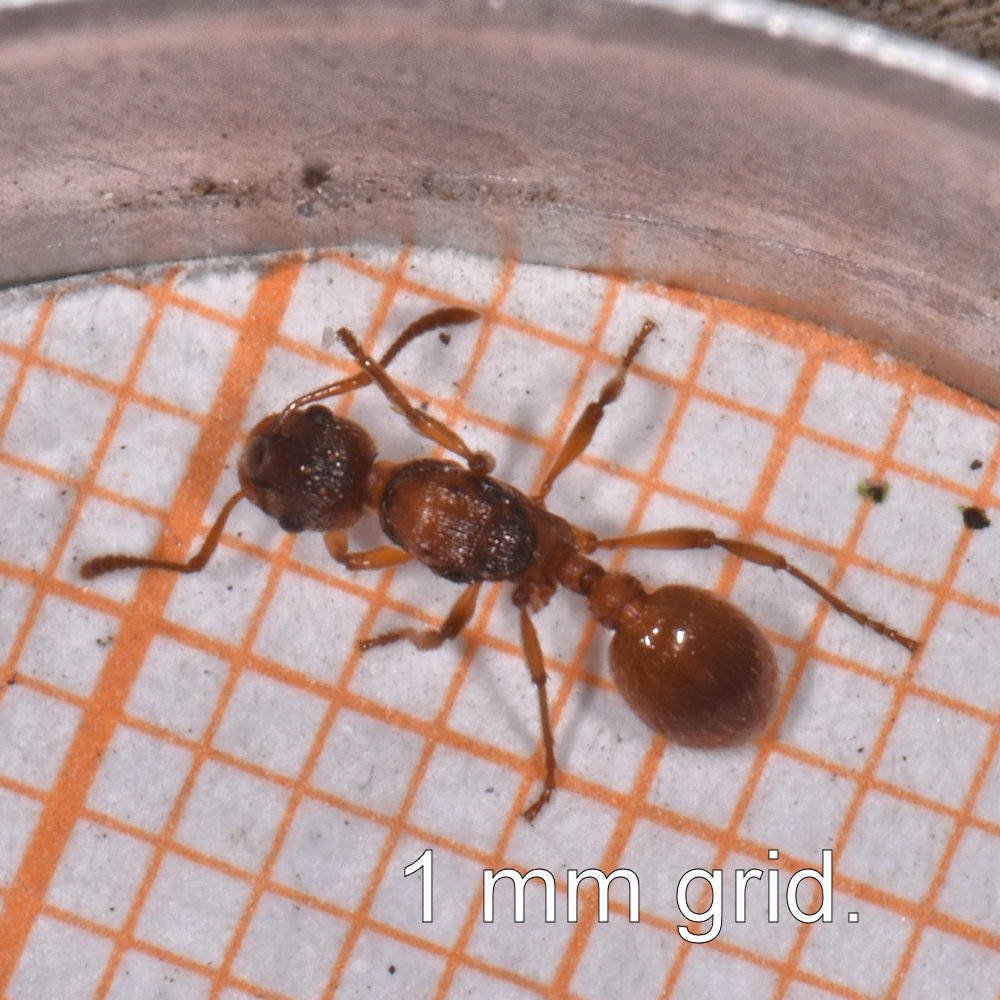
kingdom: Animalia
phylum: Arthropoda
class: Insecta
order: Hymenoptera
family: Formicidae
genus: Myrmica
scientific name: Myrmica rubra
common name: European fire ant
